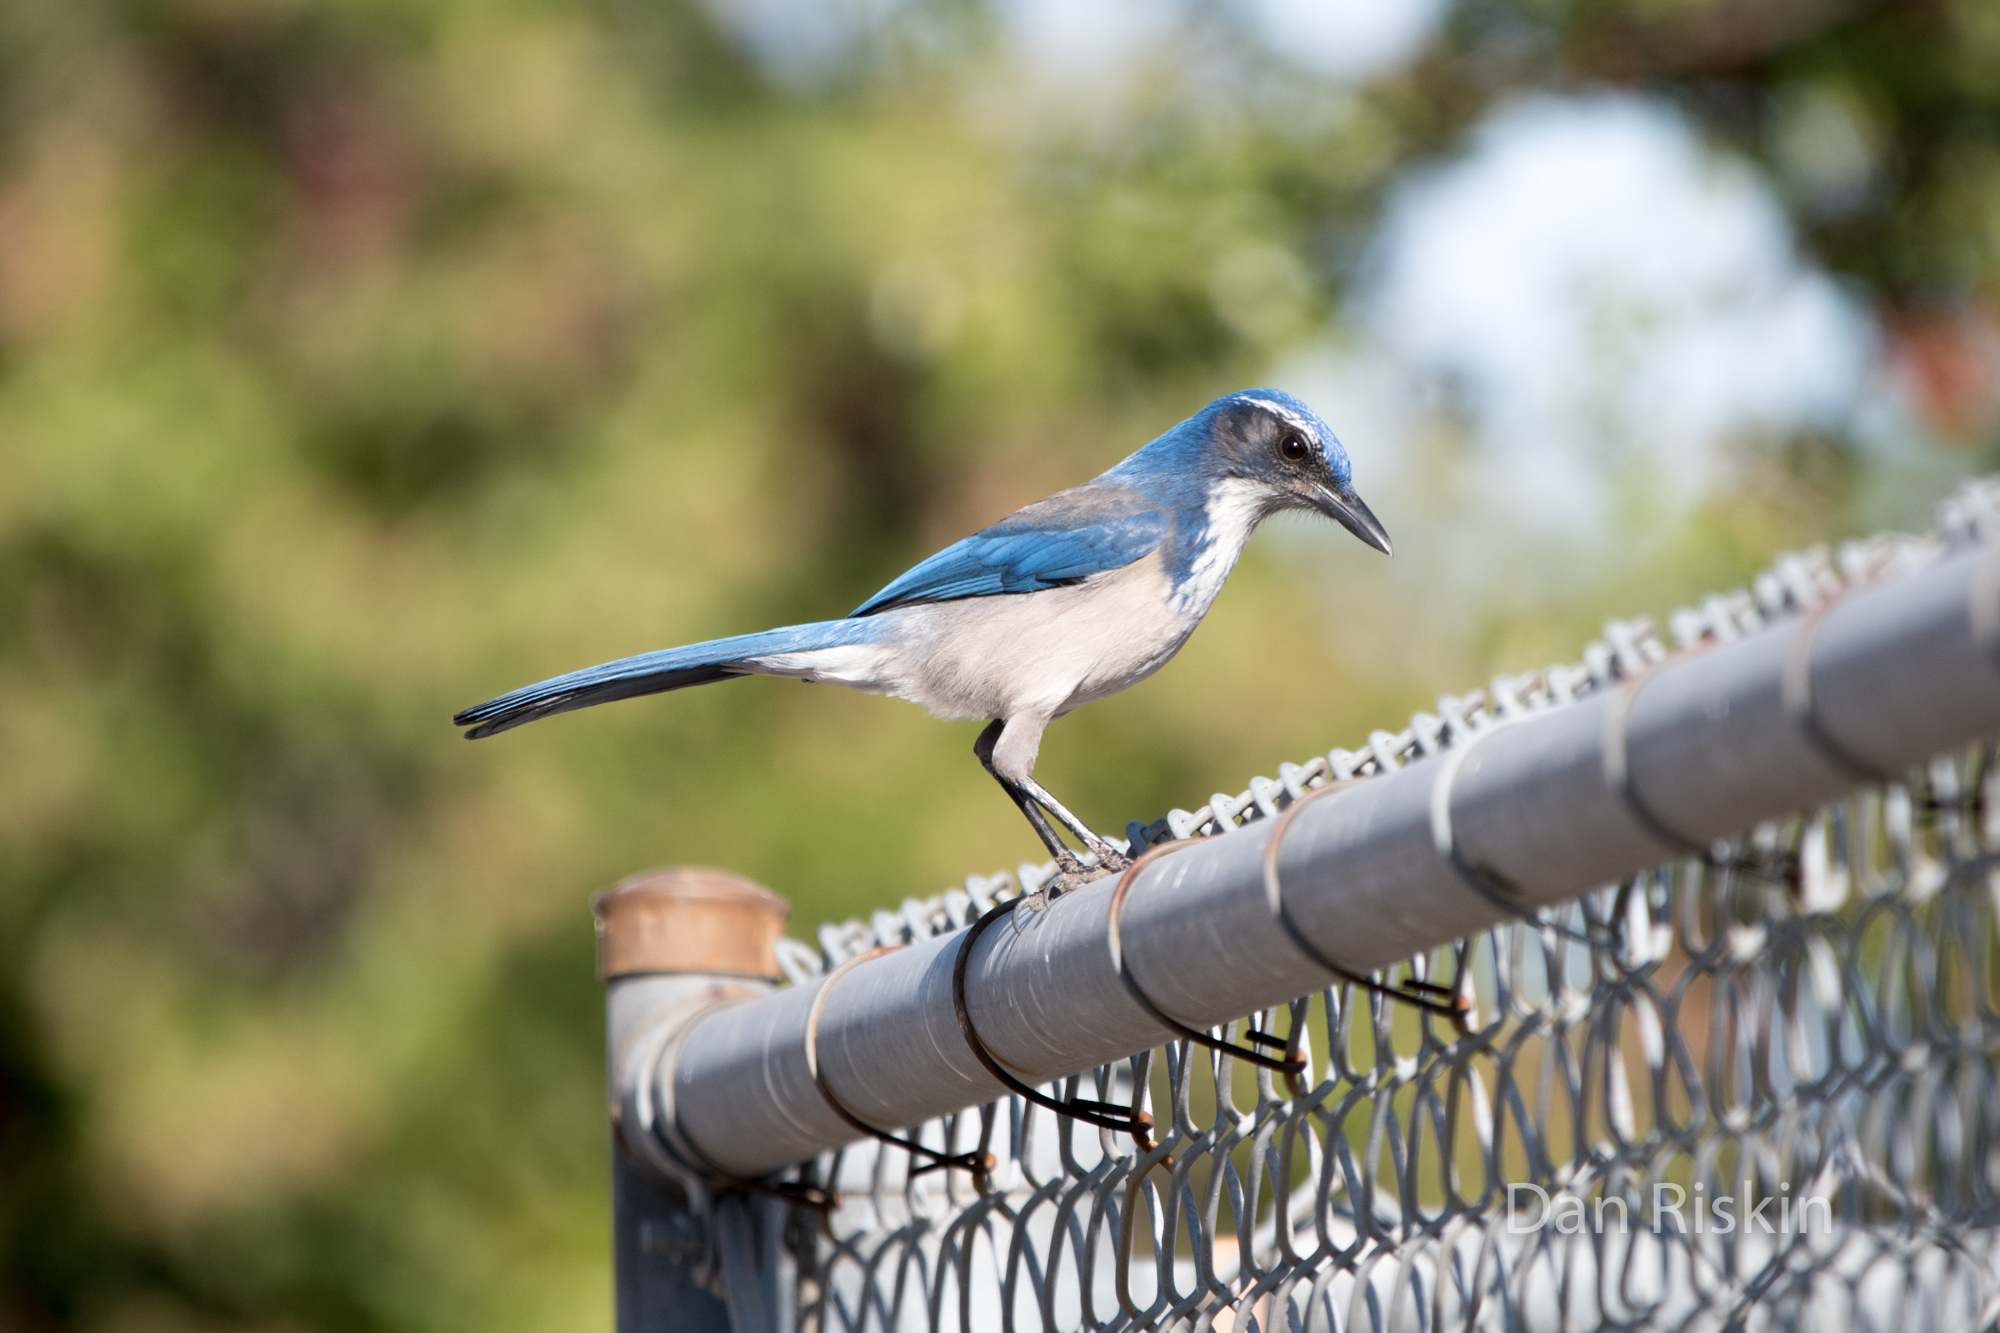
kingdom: Animalia
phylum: Chordata
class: Aves
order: Passeriformes
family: Corvidae
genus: Aphelocoma
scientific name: Aphelocoma californica
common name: California scrub-jay
